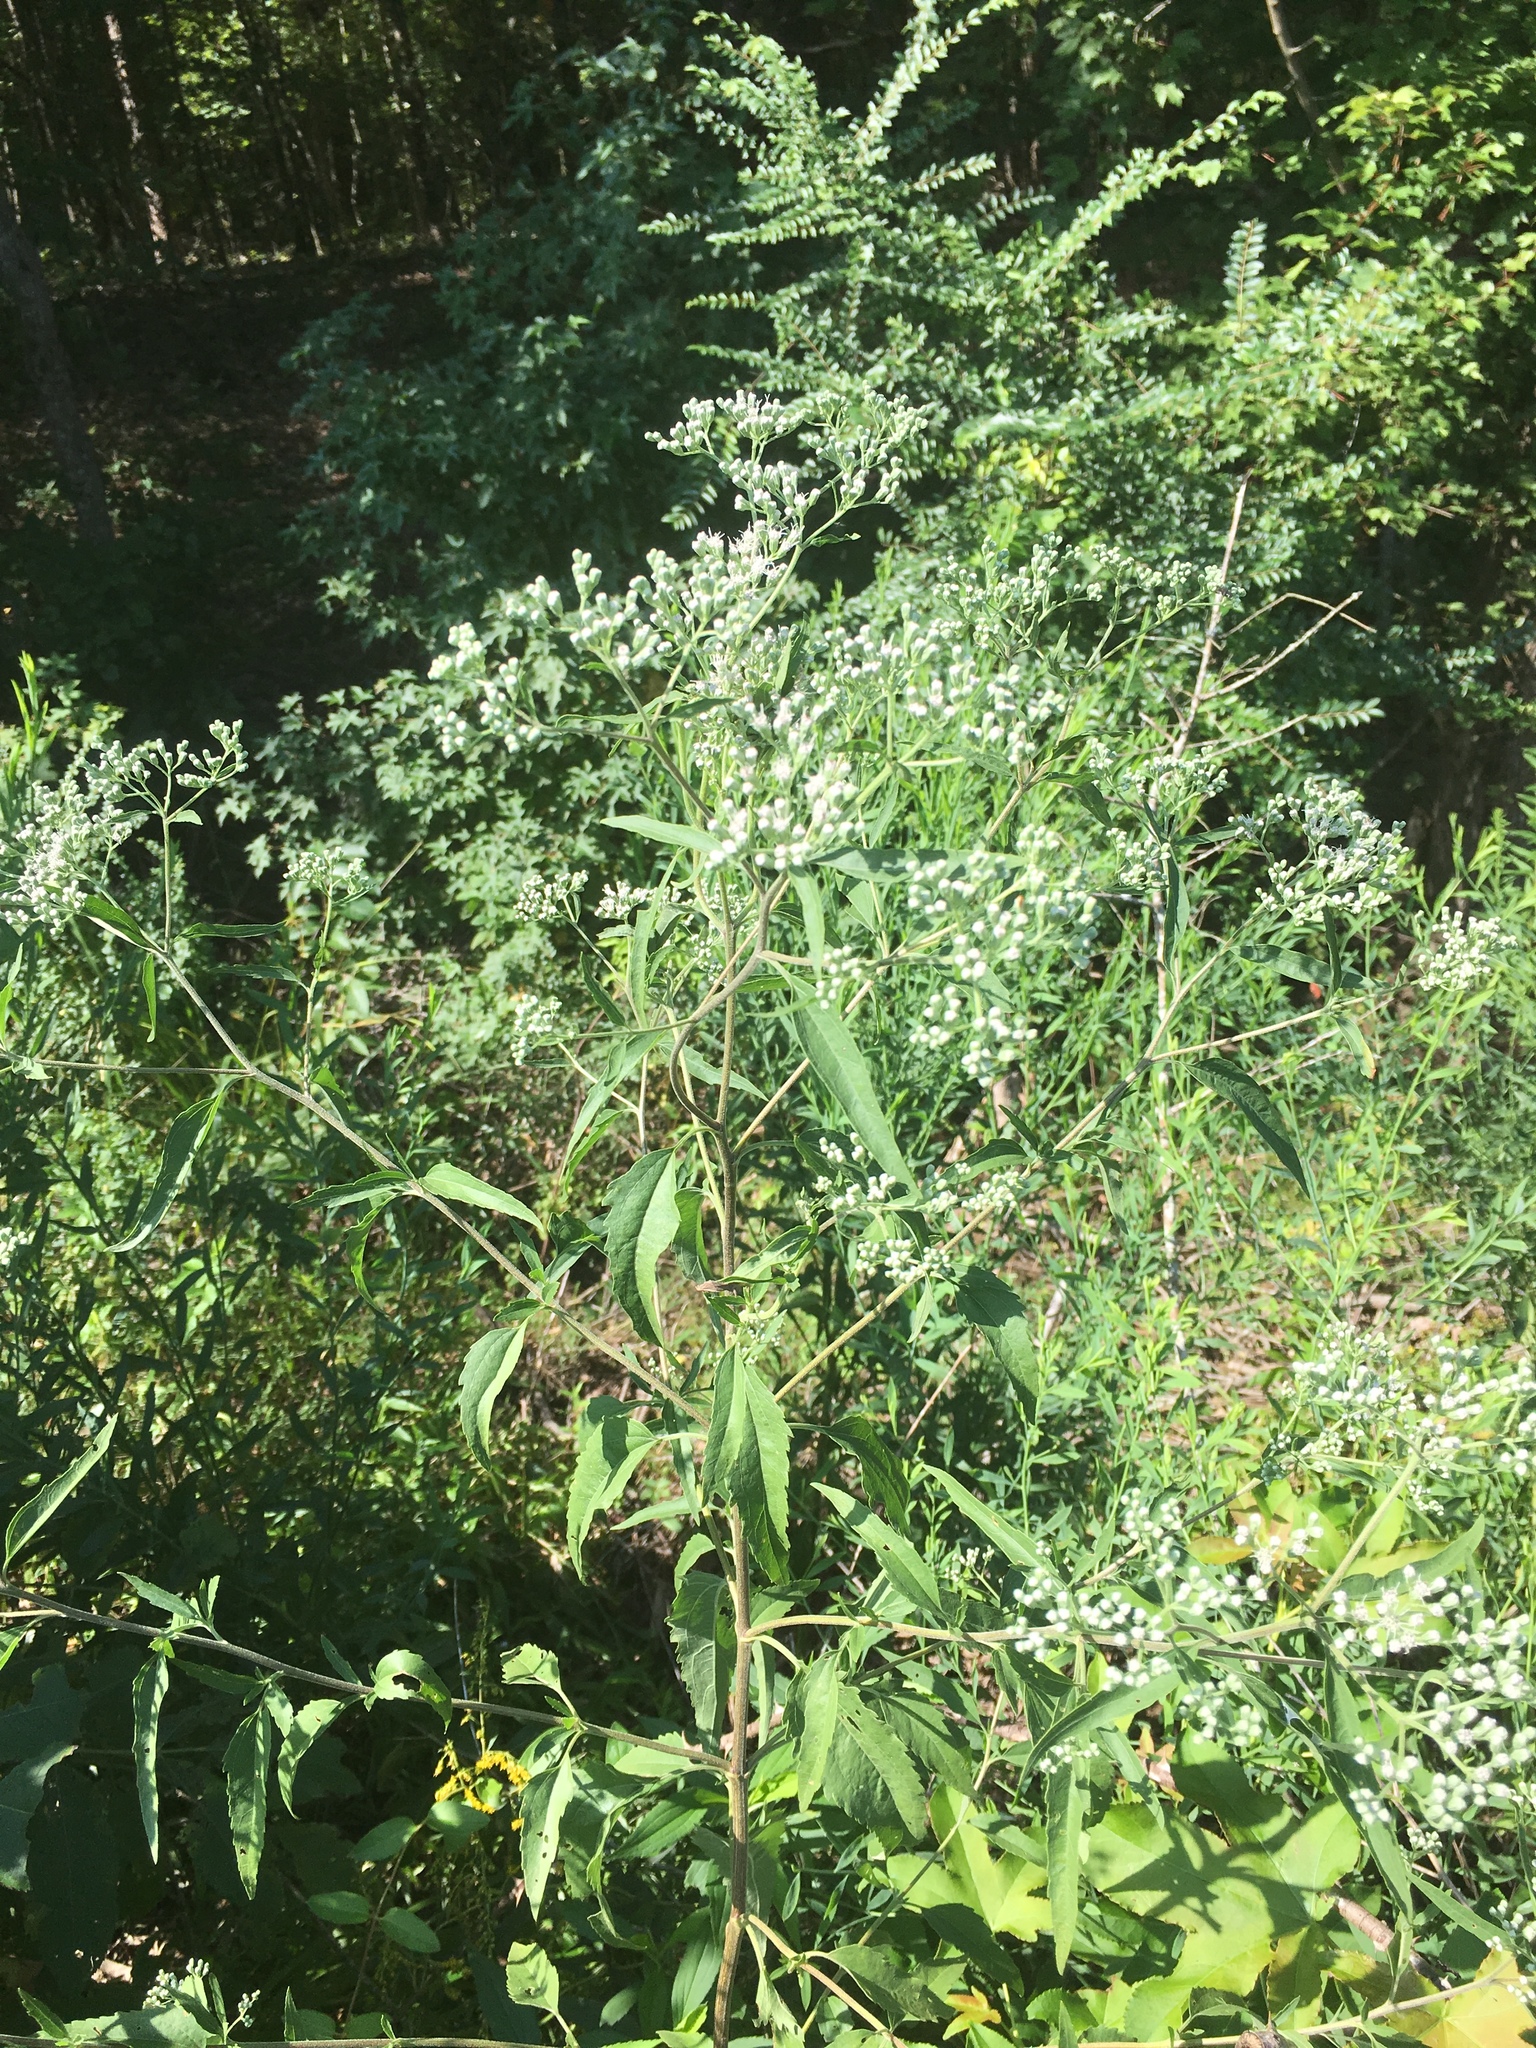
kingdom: Plantae
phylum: Tracheophyta
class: Magnoliopsida
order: Asterales
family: Asteraceae
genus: Eupatorium
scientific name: Eupatorium serotinum
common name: Late boneset
